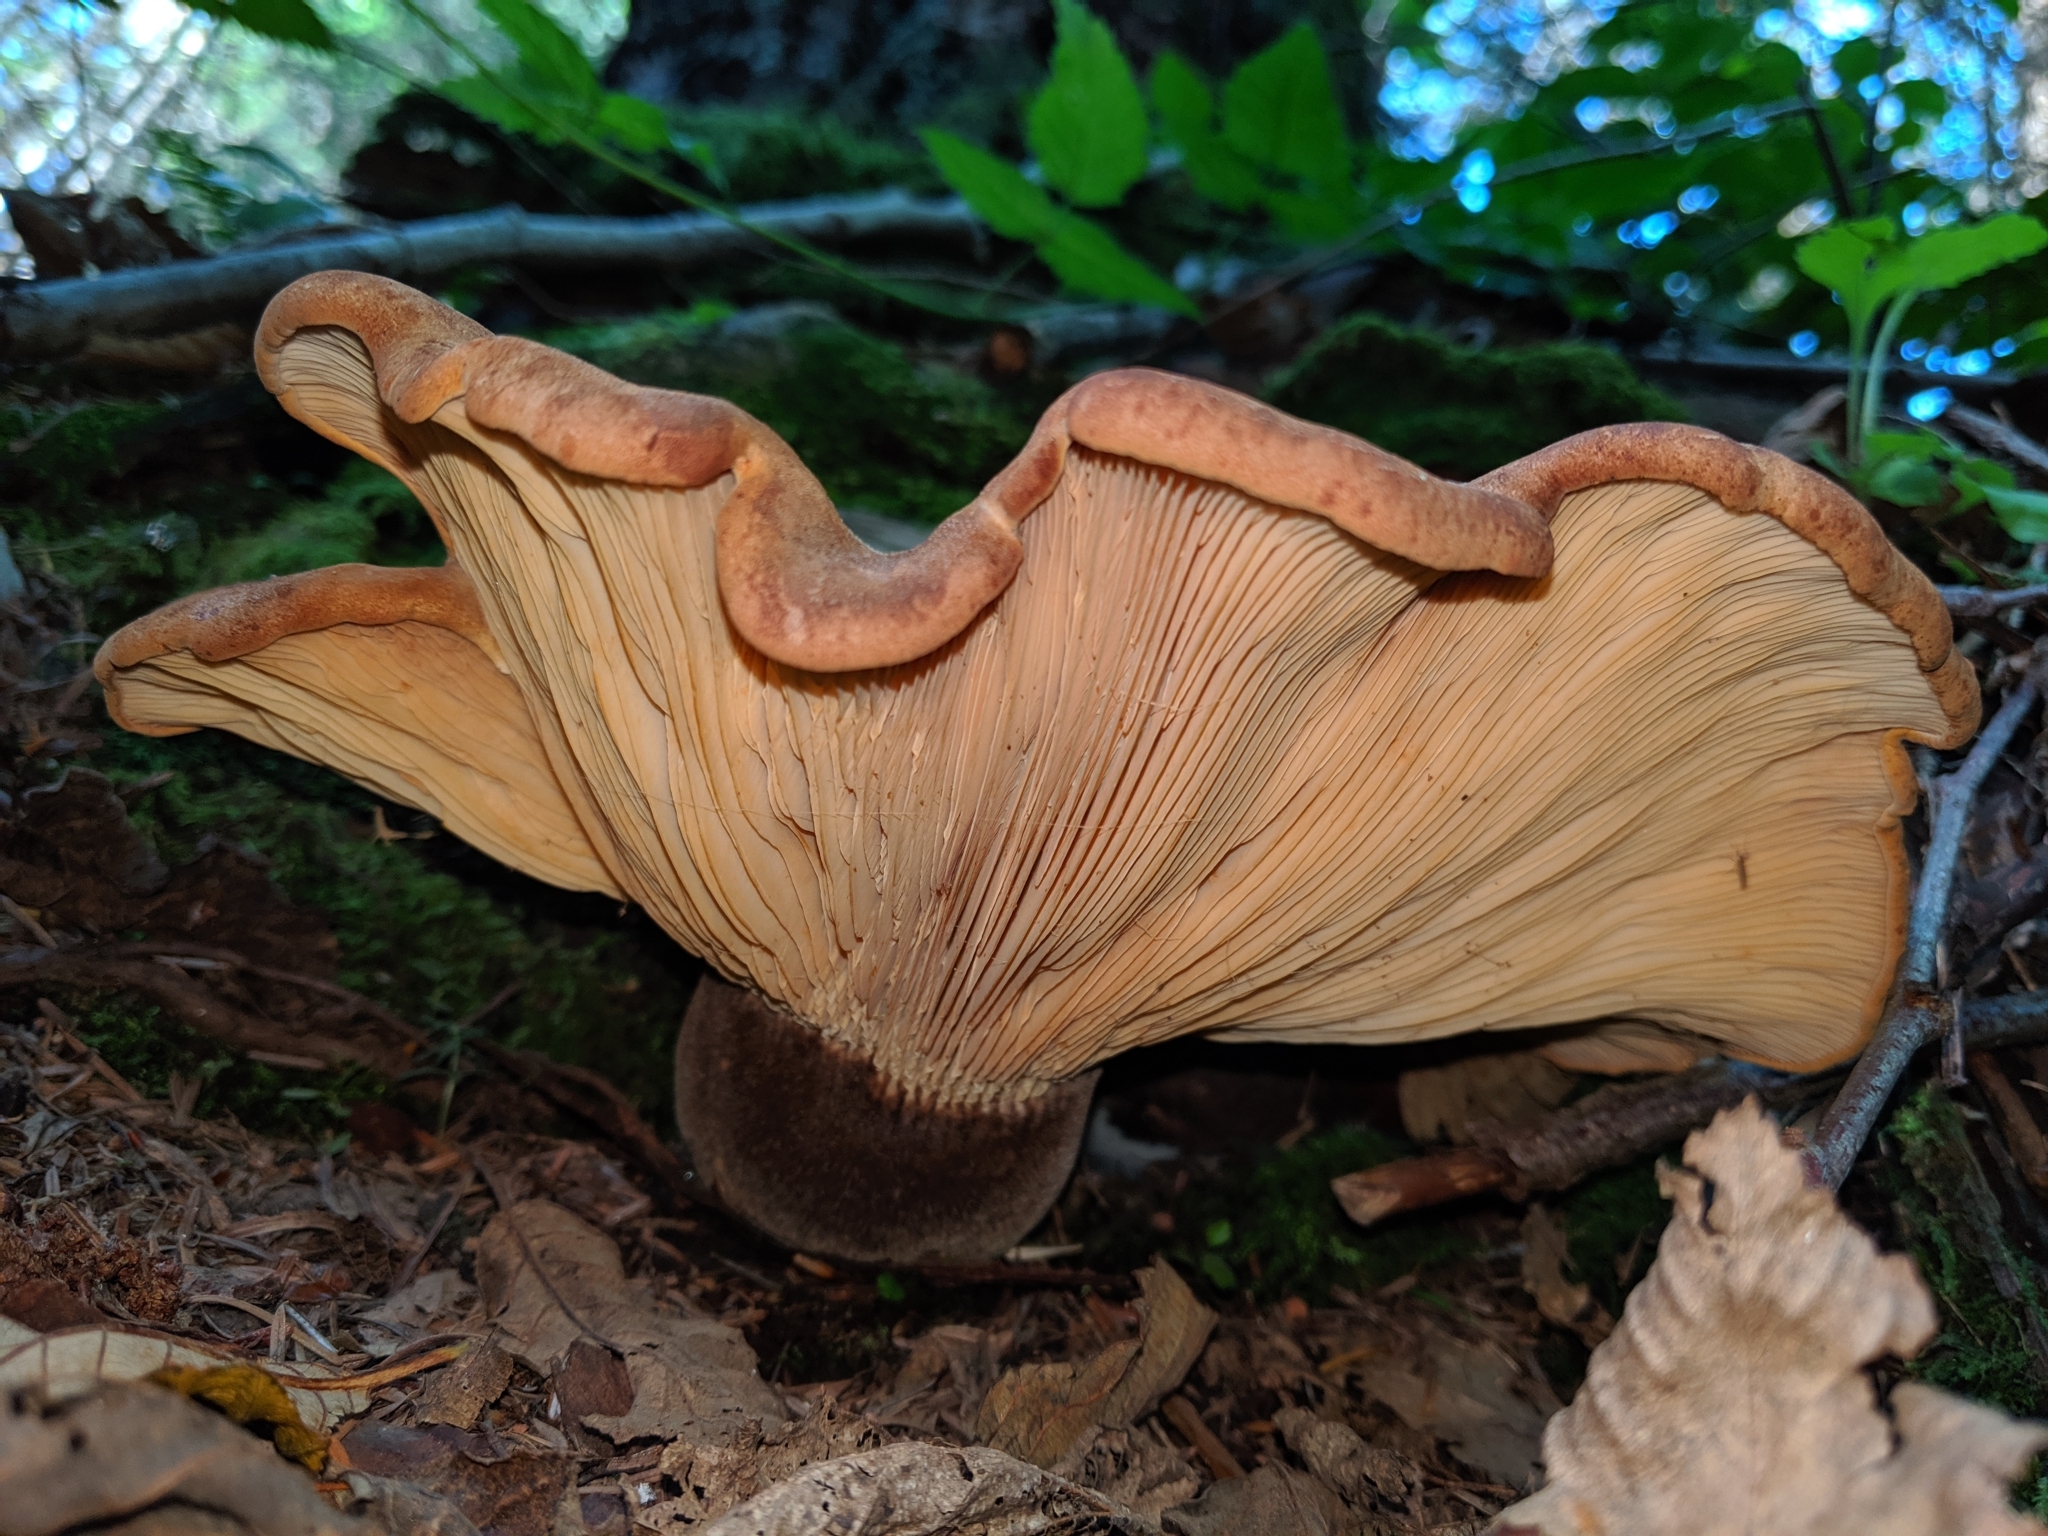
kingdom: Fungi
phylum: Basidiomycota
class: Agaricomycetes
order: Boletales
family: Tapinellaceae
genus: Tapinella
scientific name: Tapinella atrotomentosa
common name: Velvet rollrim
